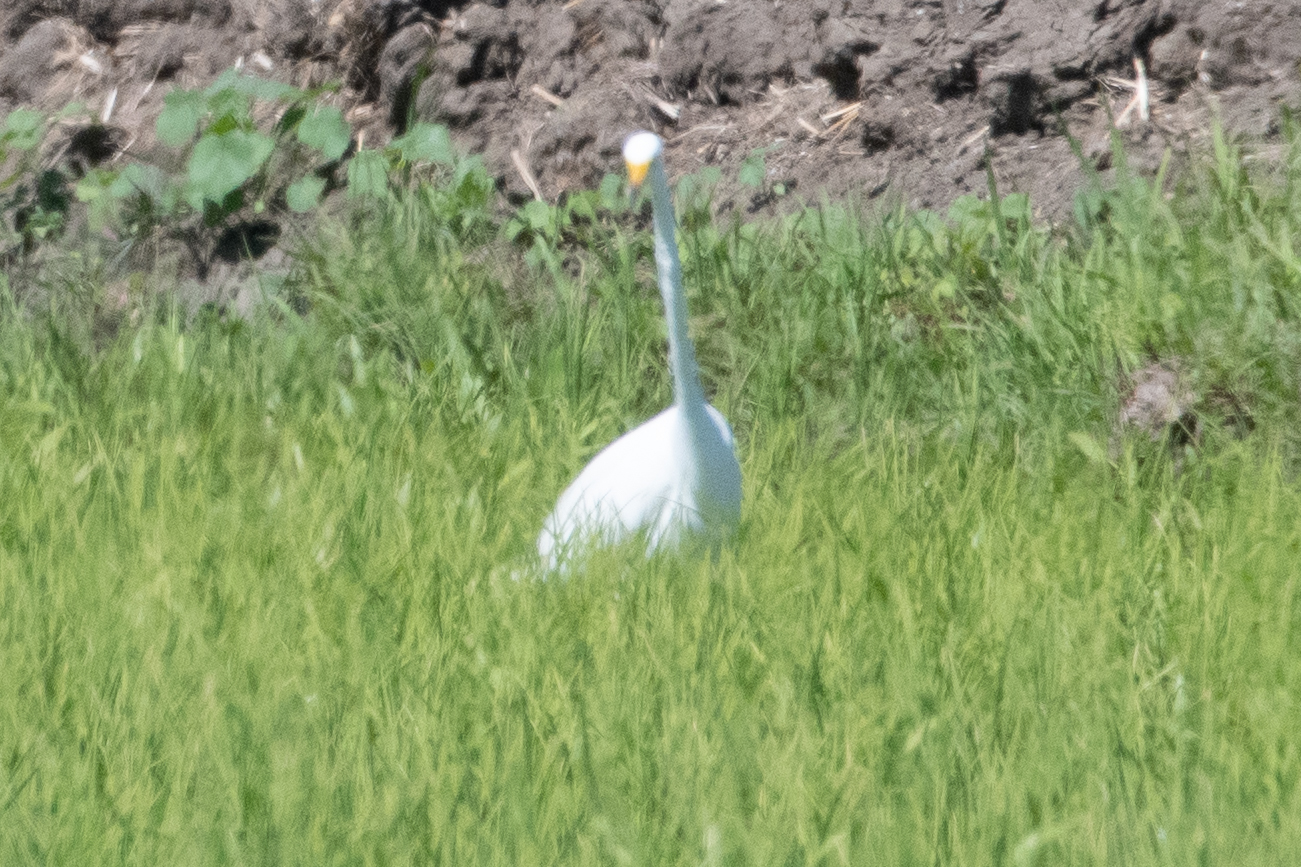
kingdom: Animalia
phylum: Chordata
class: Aves
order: Pelecaniformes
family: Ardeidae
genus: Ardea
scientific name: Ardea alba
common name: Great egret
